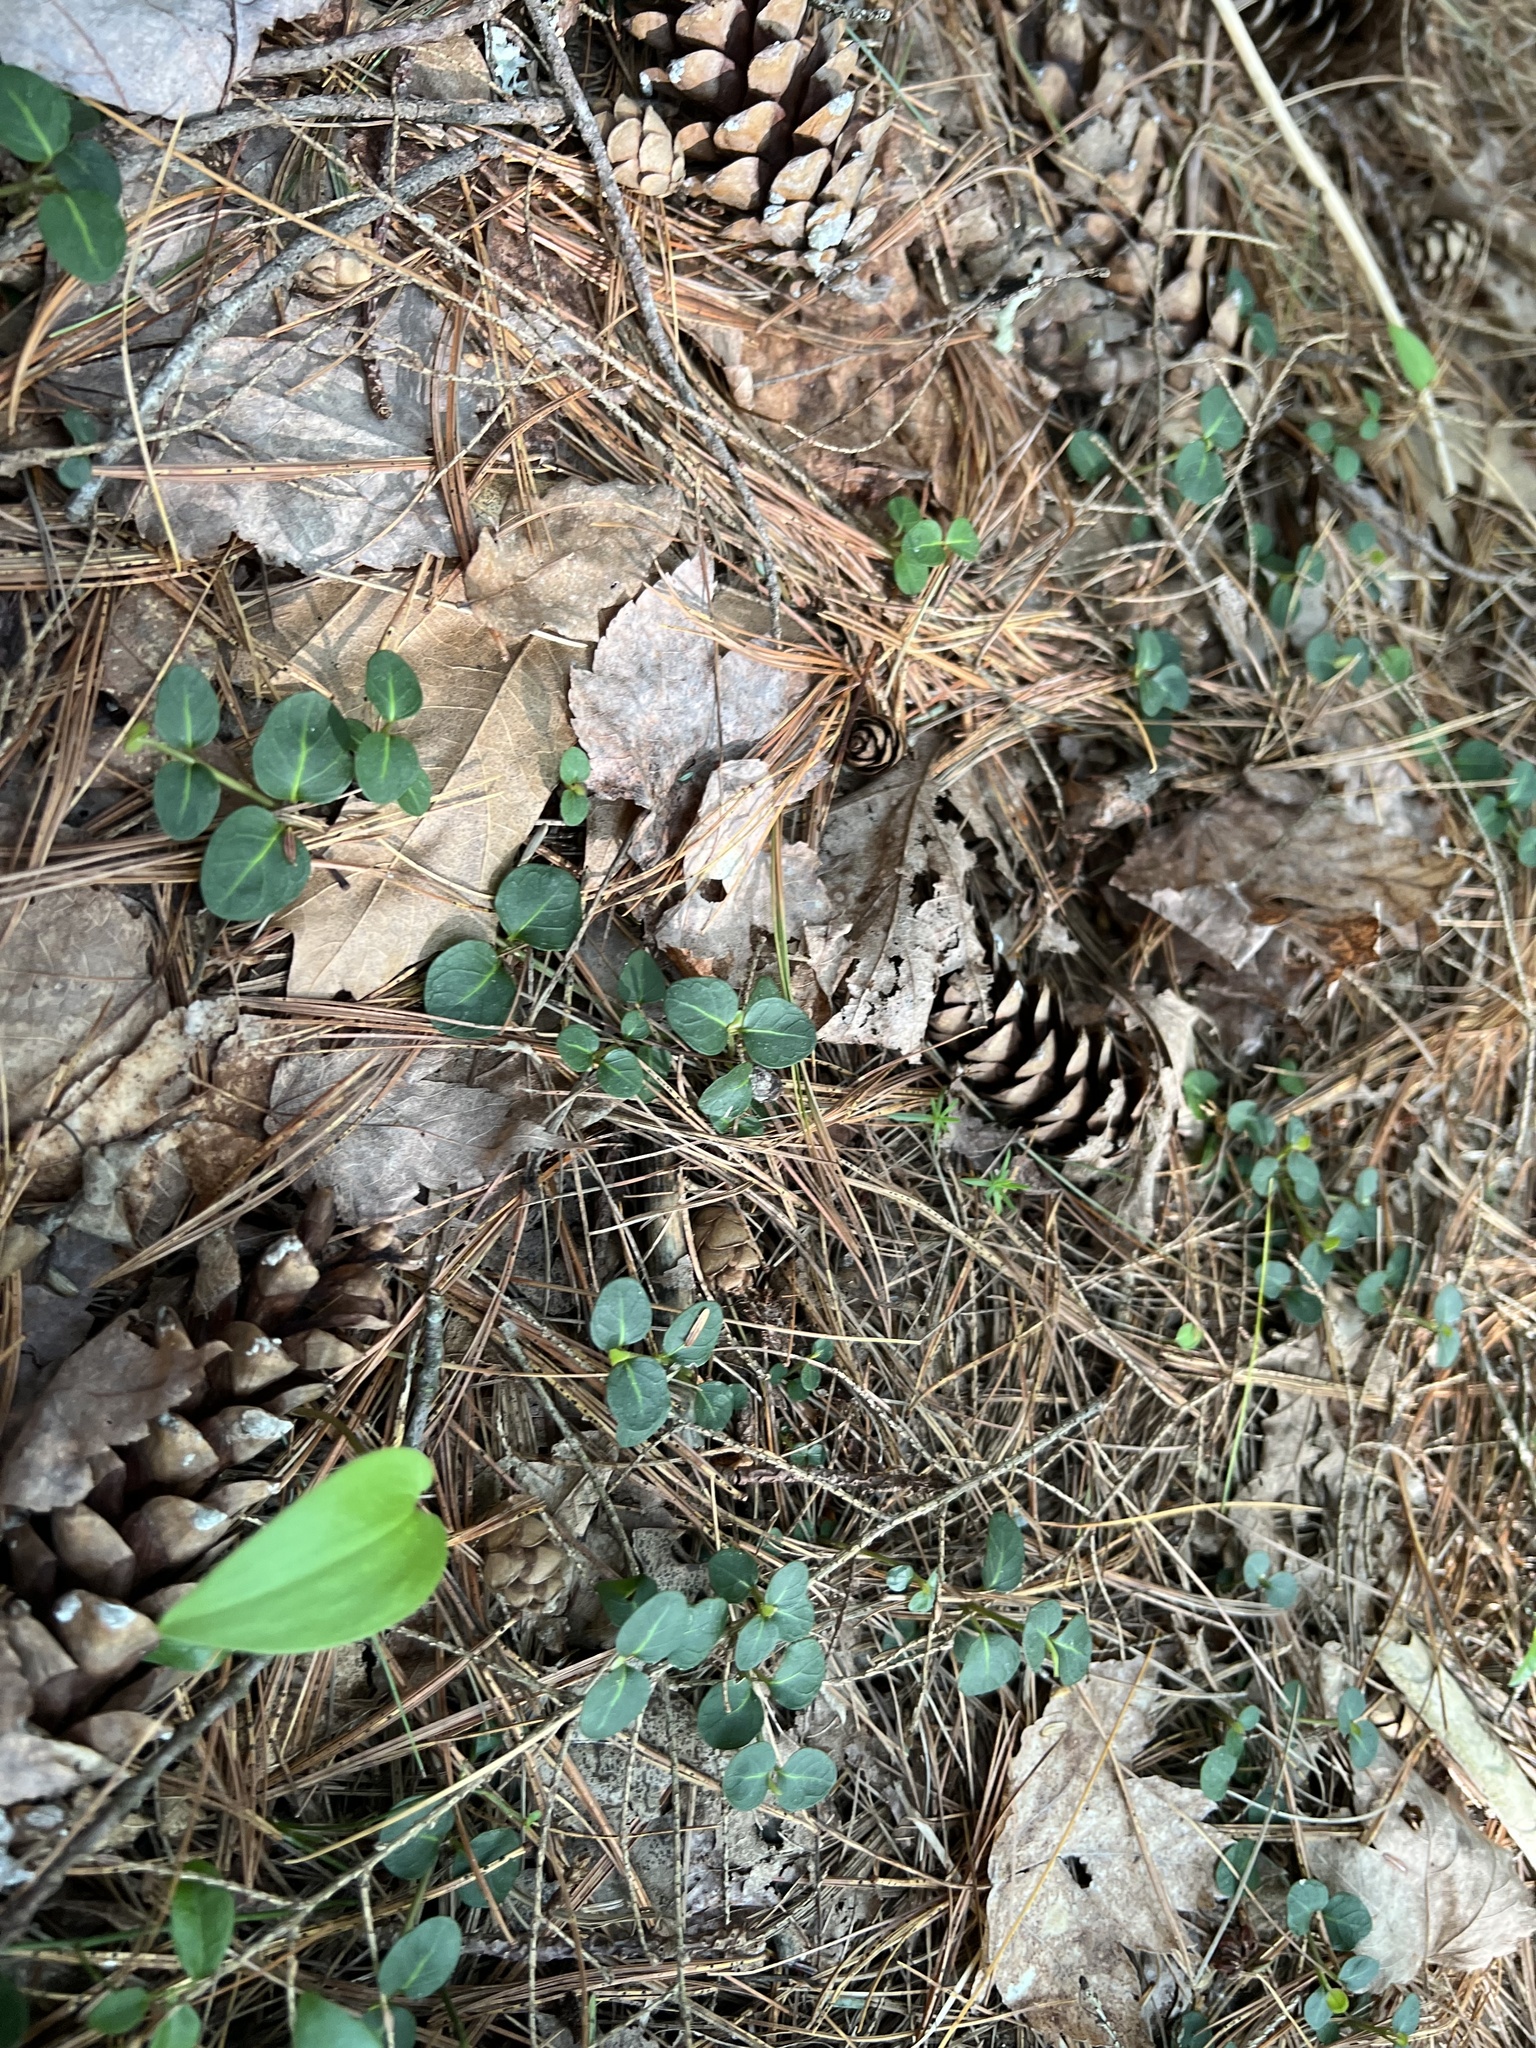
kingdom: Plantae
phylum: Tracheophyta
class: Magnoliopsida
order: Gentianales
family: Rubiaceae
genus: Mitchella
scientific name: Mitchella repens
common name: Partridge-berry
